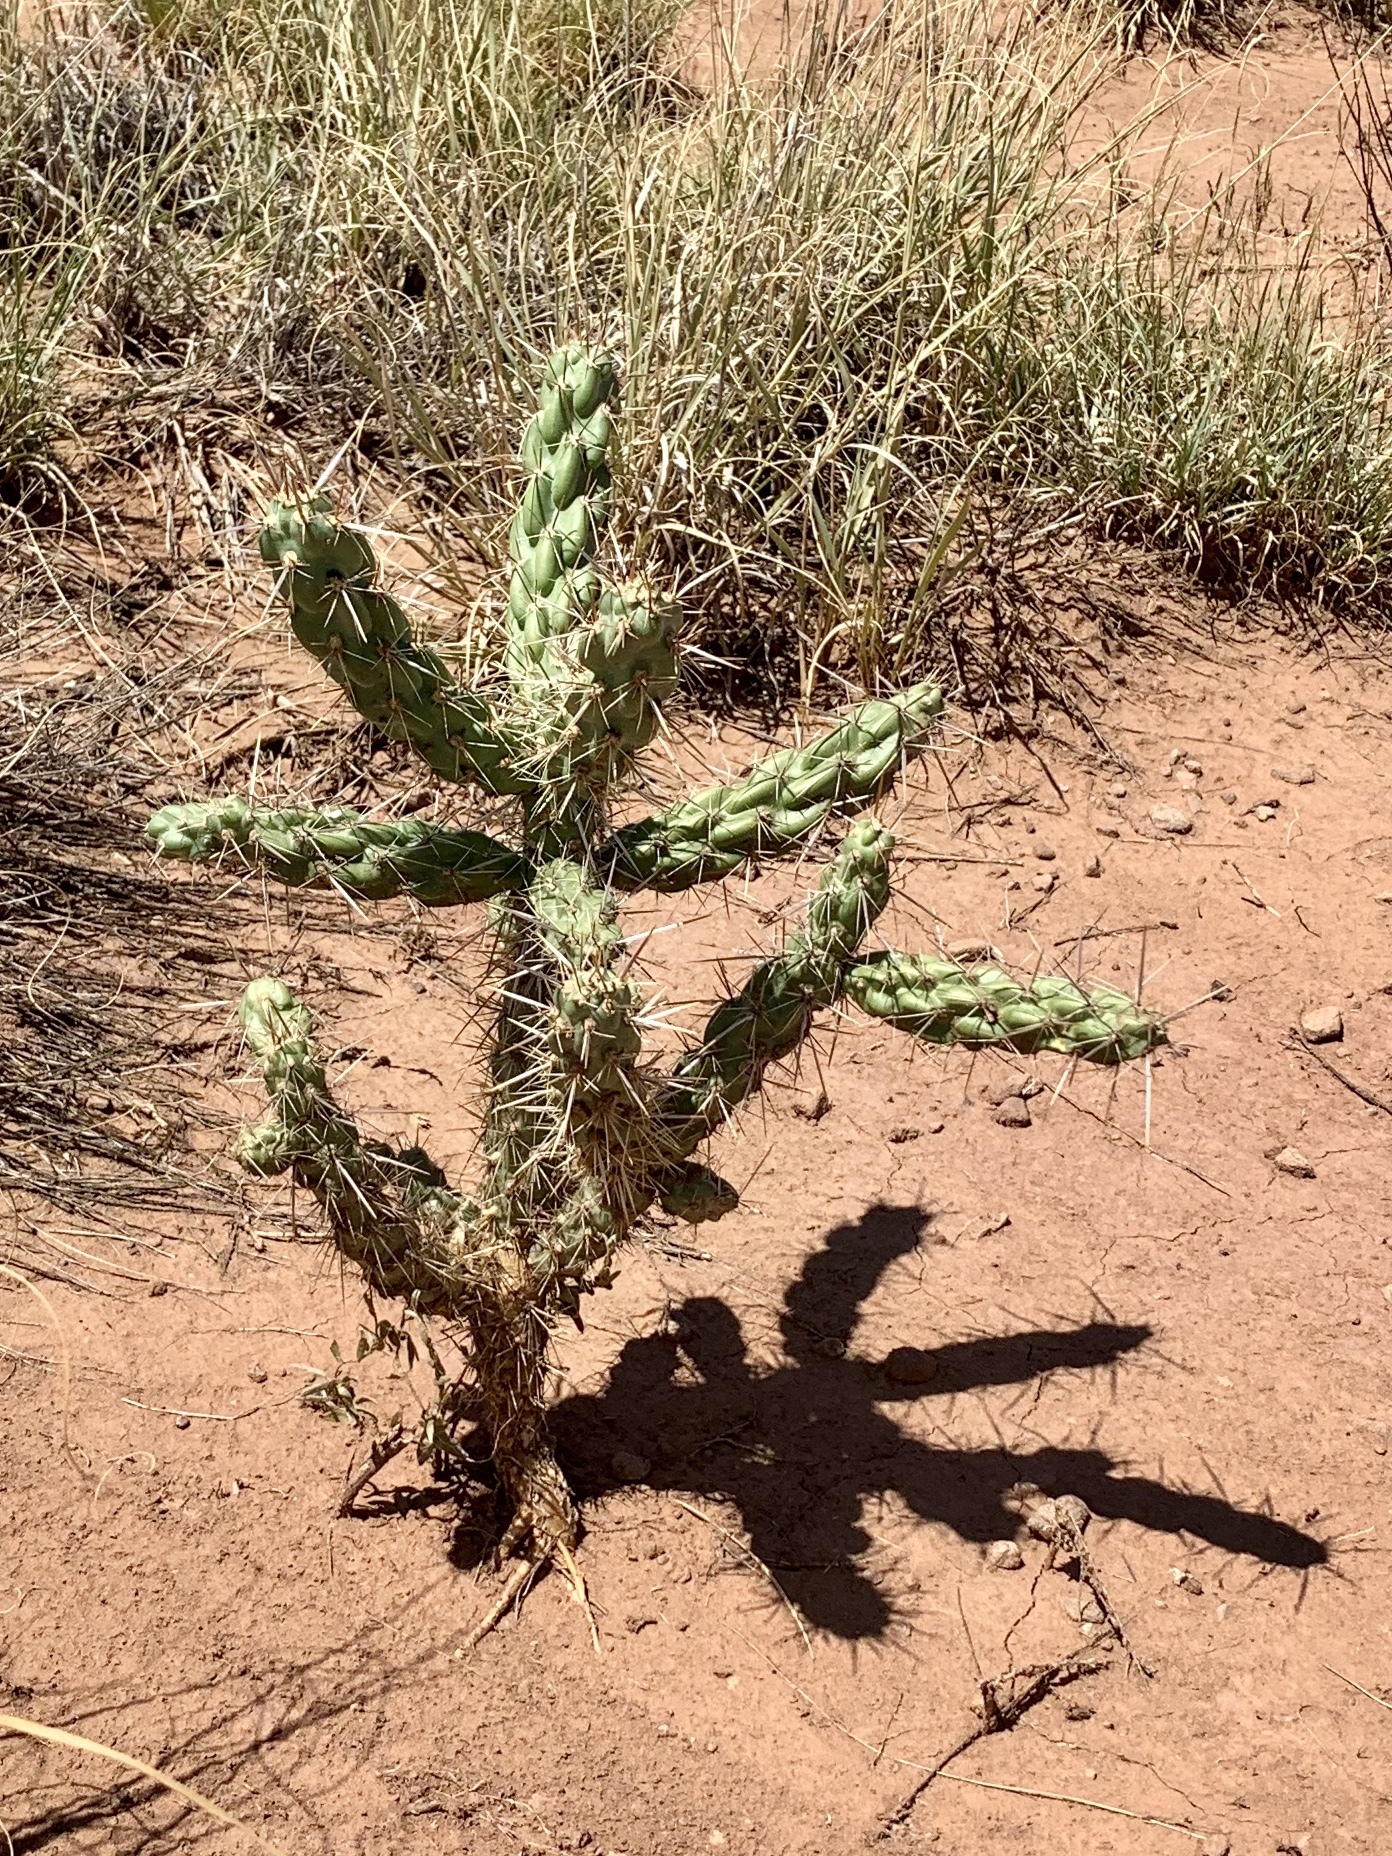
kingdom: Plantae
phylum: Tracheophyta
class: Magnoliopsida
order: Caryophyllales
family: Cactaceae
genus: Cylindropuntia
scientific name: Cylindropuntia imbricata
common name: Candelabrum cactus
